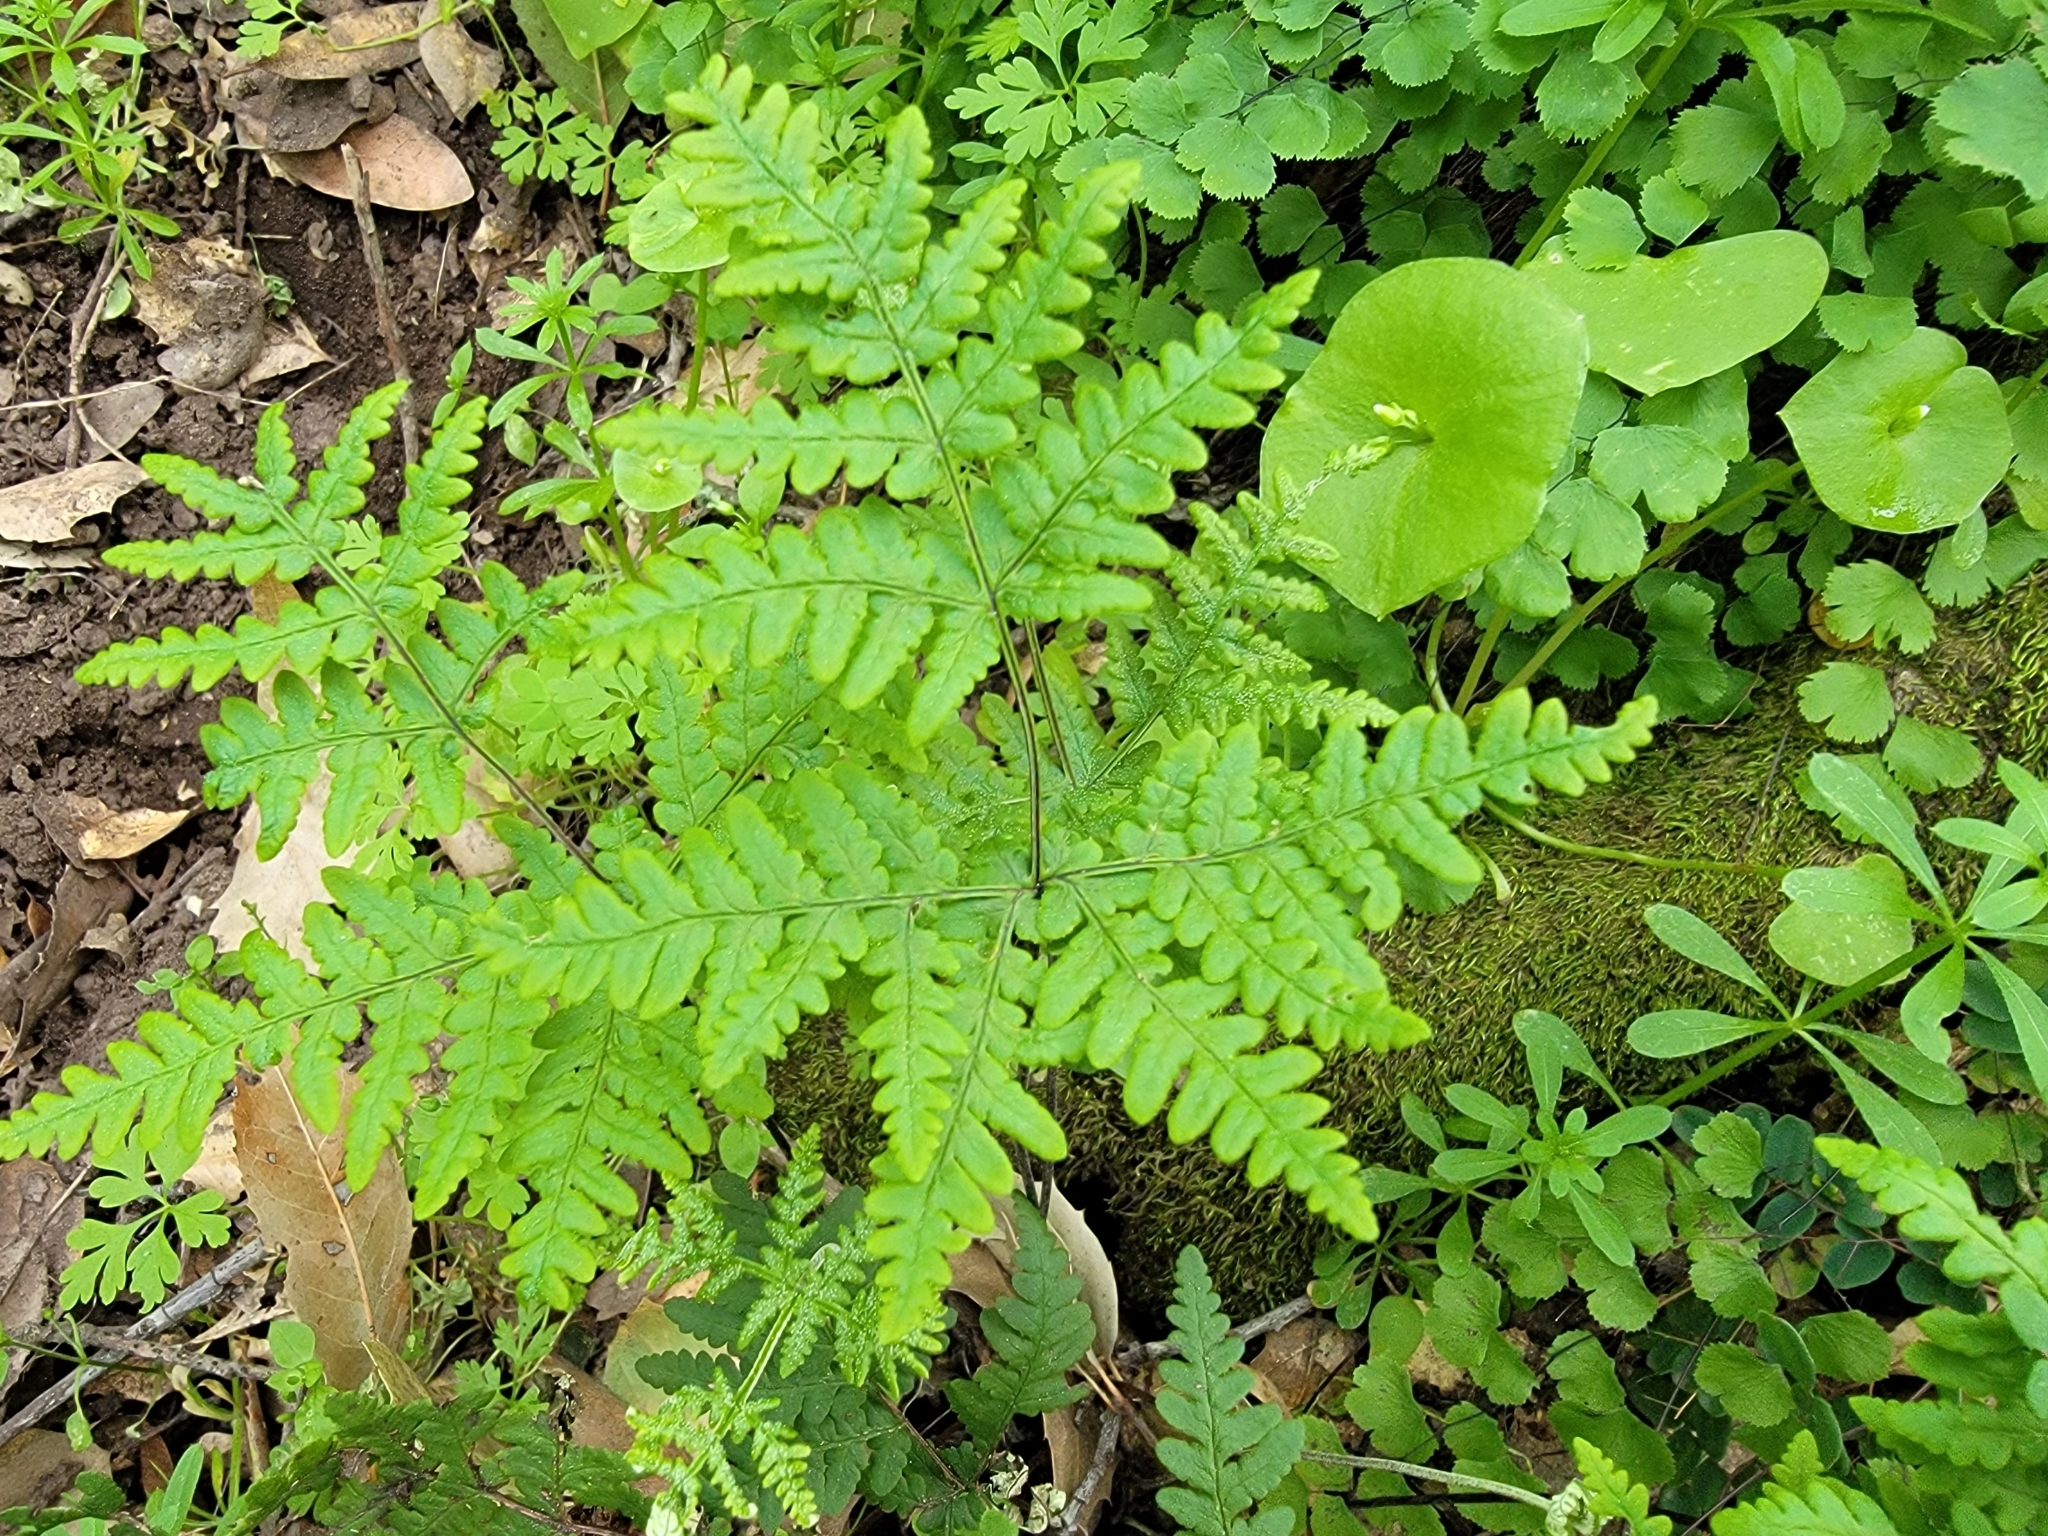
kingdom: Plantae
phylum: Tracheophyta
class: Polypodiopsida
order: Polypodiales
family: Pteridaceae
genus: Pentagramma
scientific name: Pentagramma triangularis
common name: Gold fern
